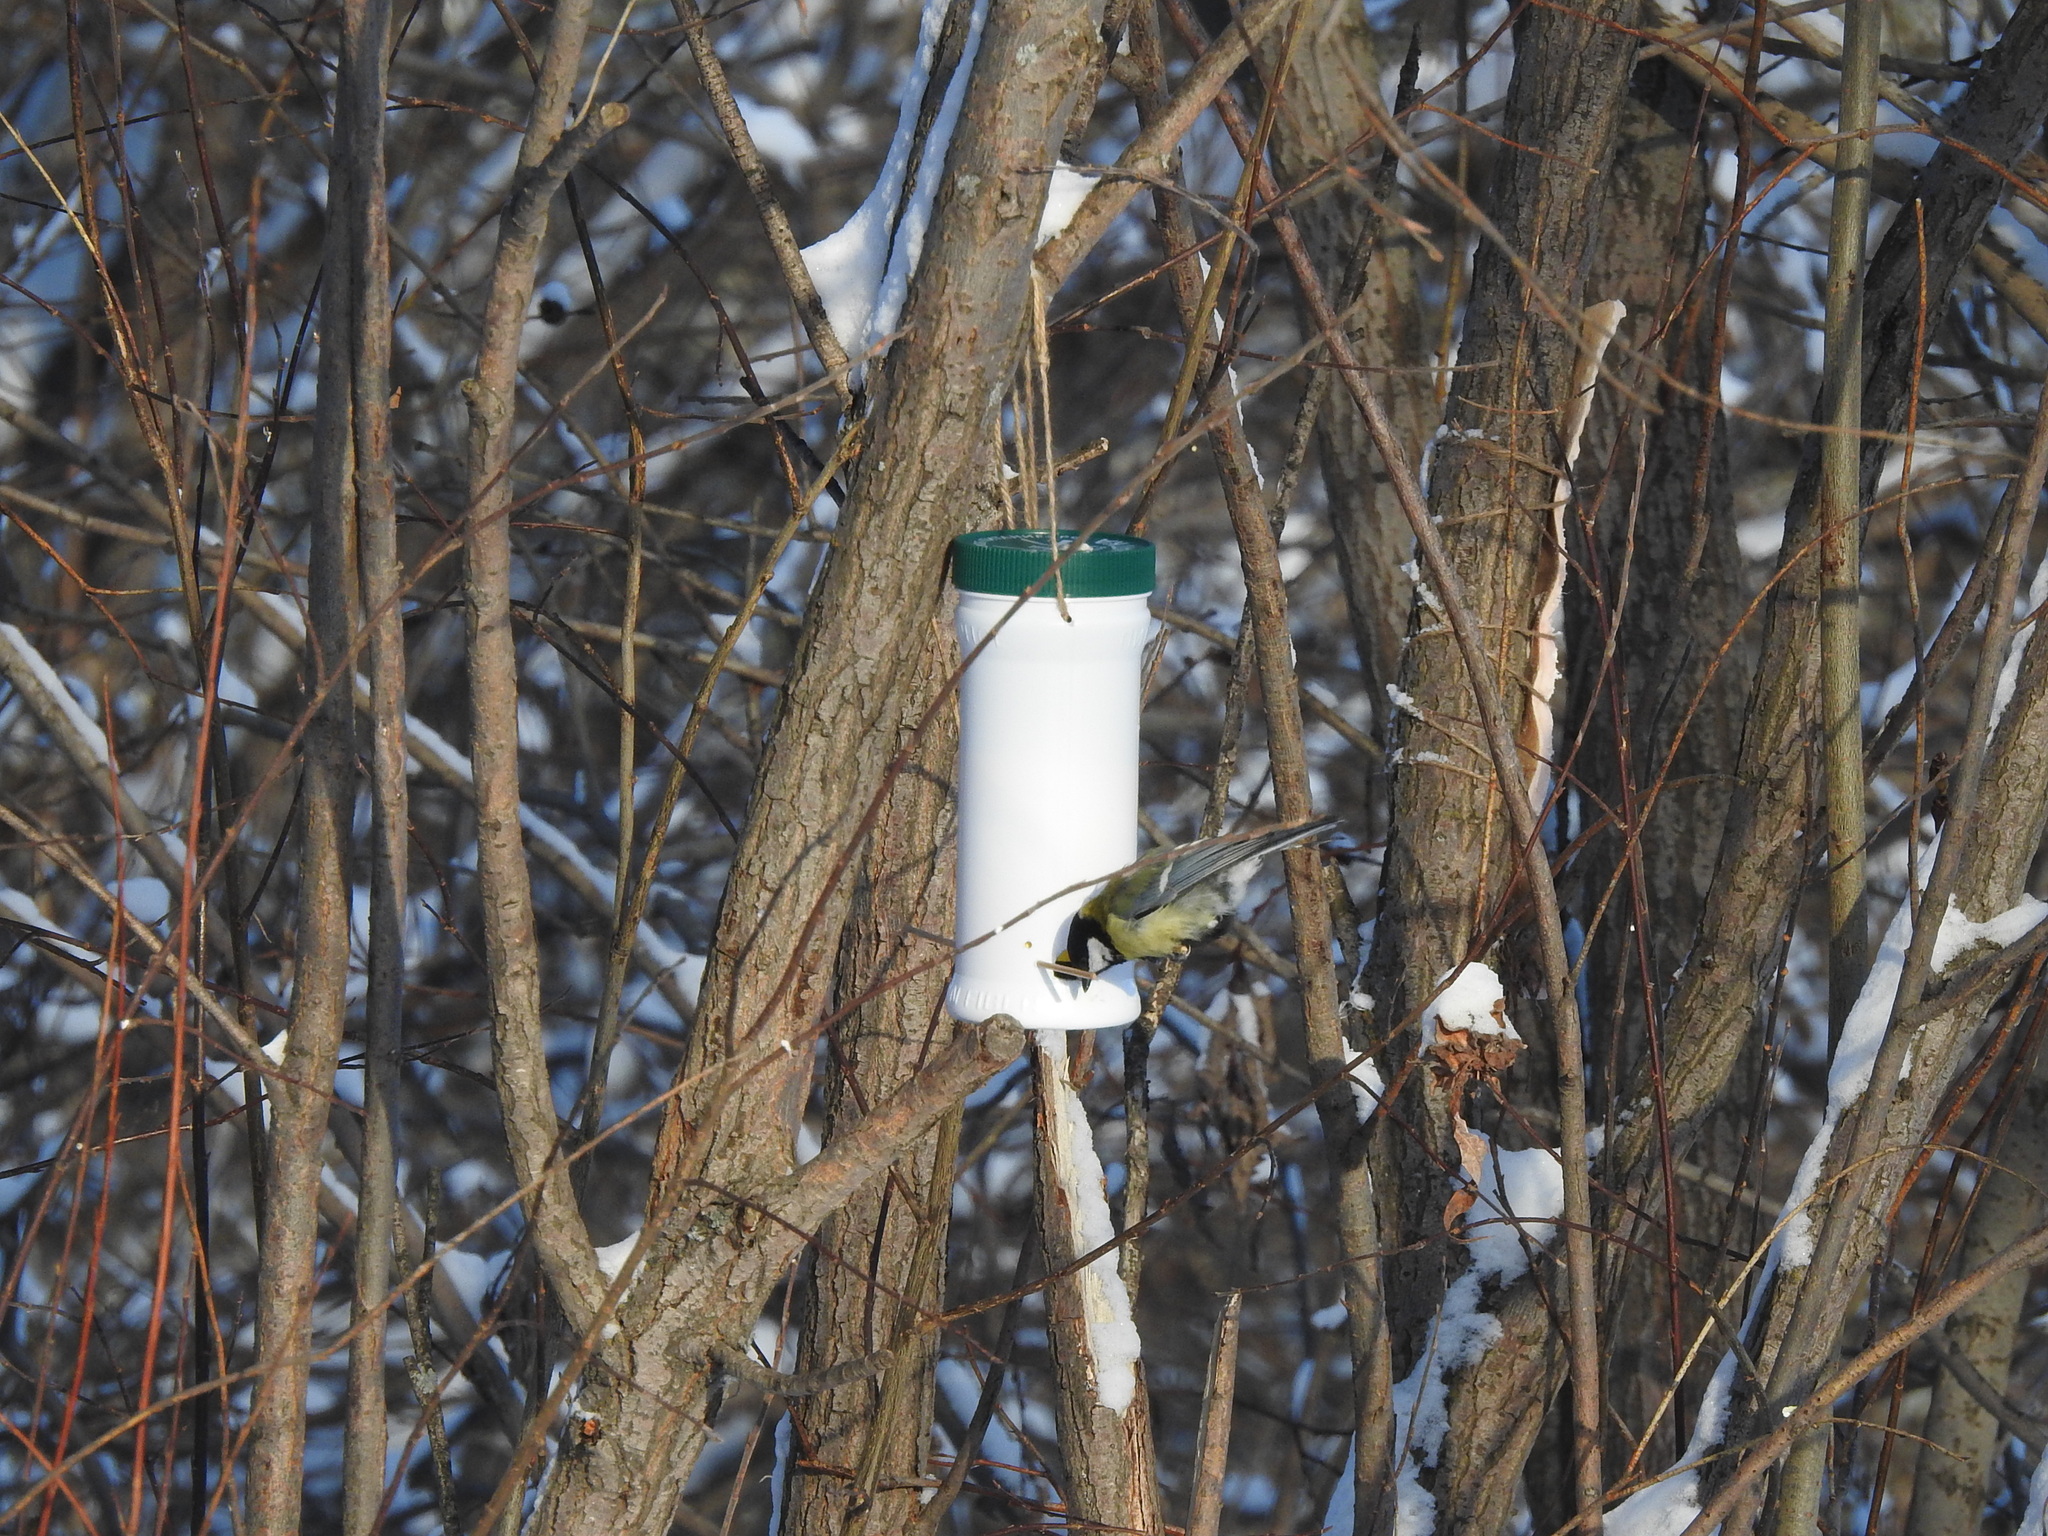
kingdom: Animalia
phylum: Chordata
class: Aves
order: Passeriformes
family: Paridae
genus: Parus
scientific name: Parus major
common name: Great tit
